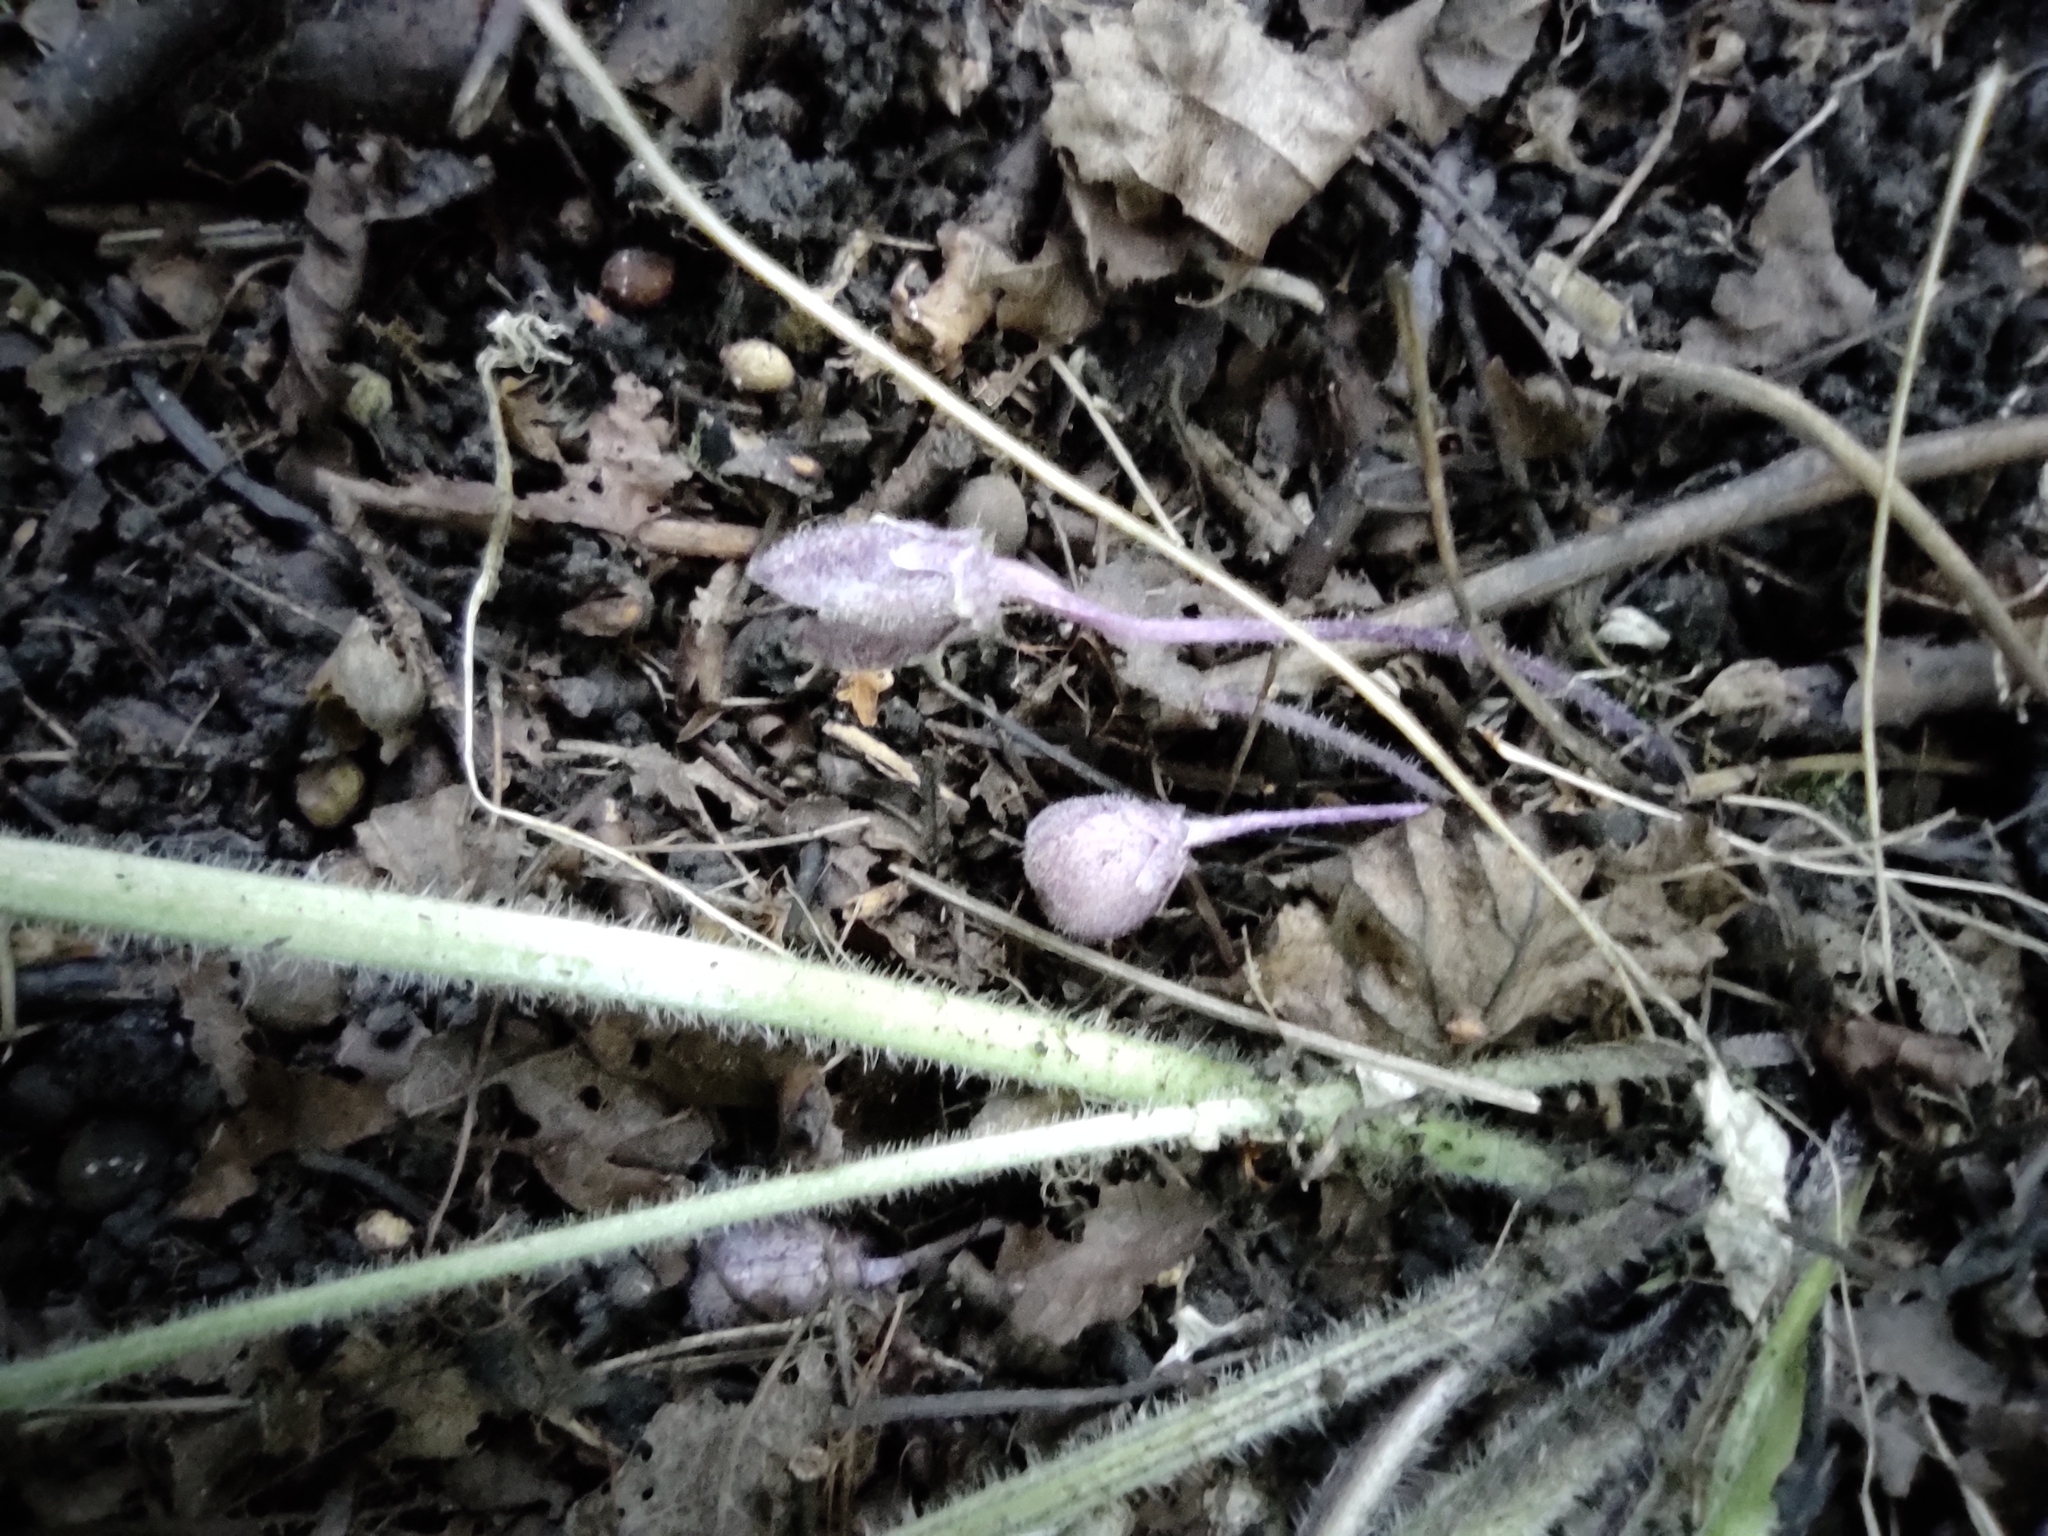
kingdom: Plantae
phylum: Tracheophyta
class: Magnoliopsida
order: Malpighiales
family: Violaceae
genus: Viola
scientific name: Viola hirta
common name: Hairy violet
